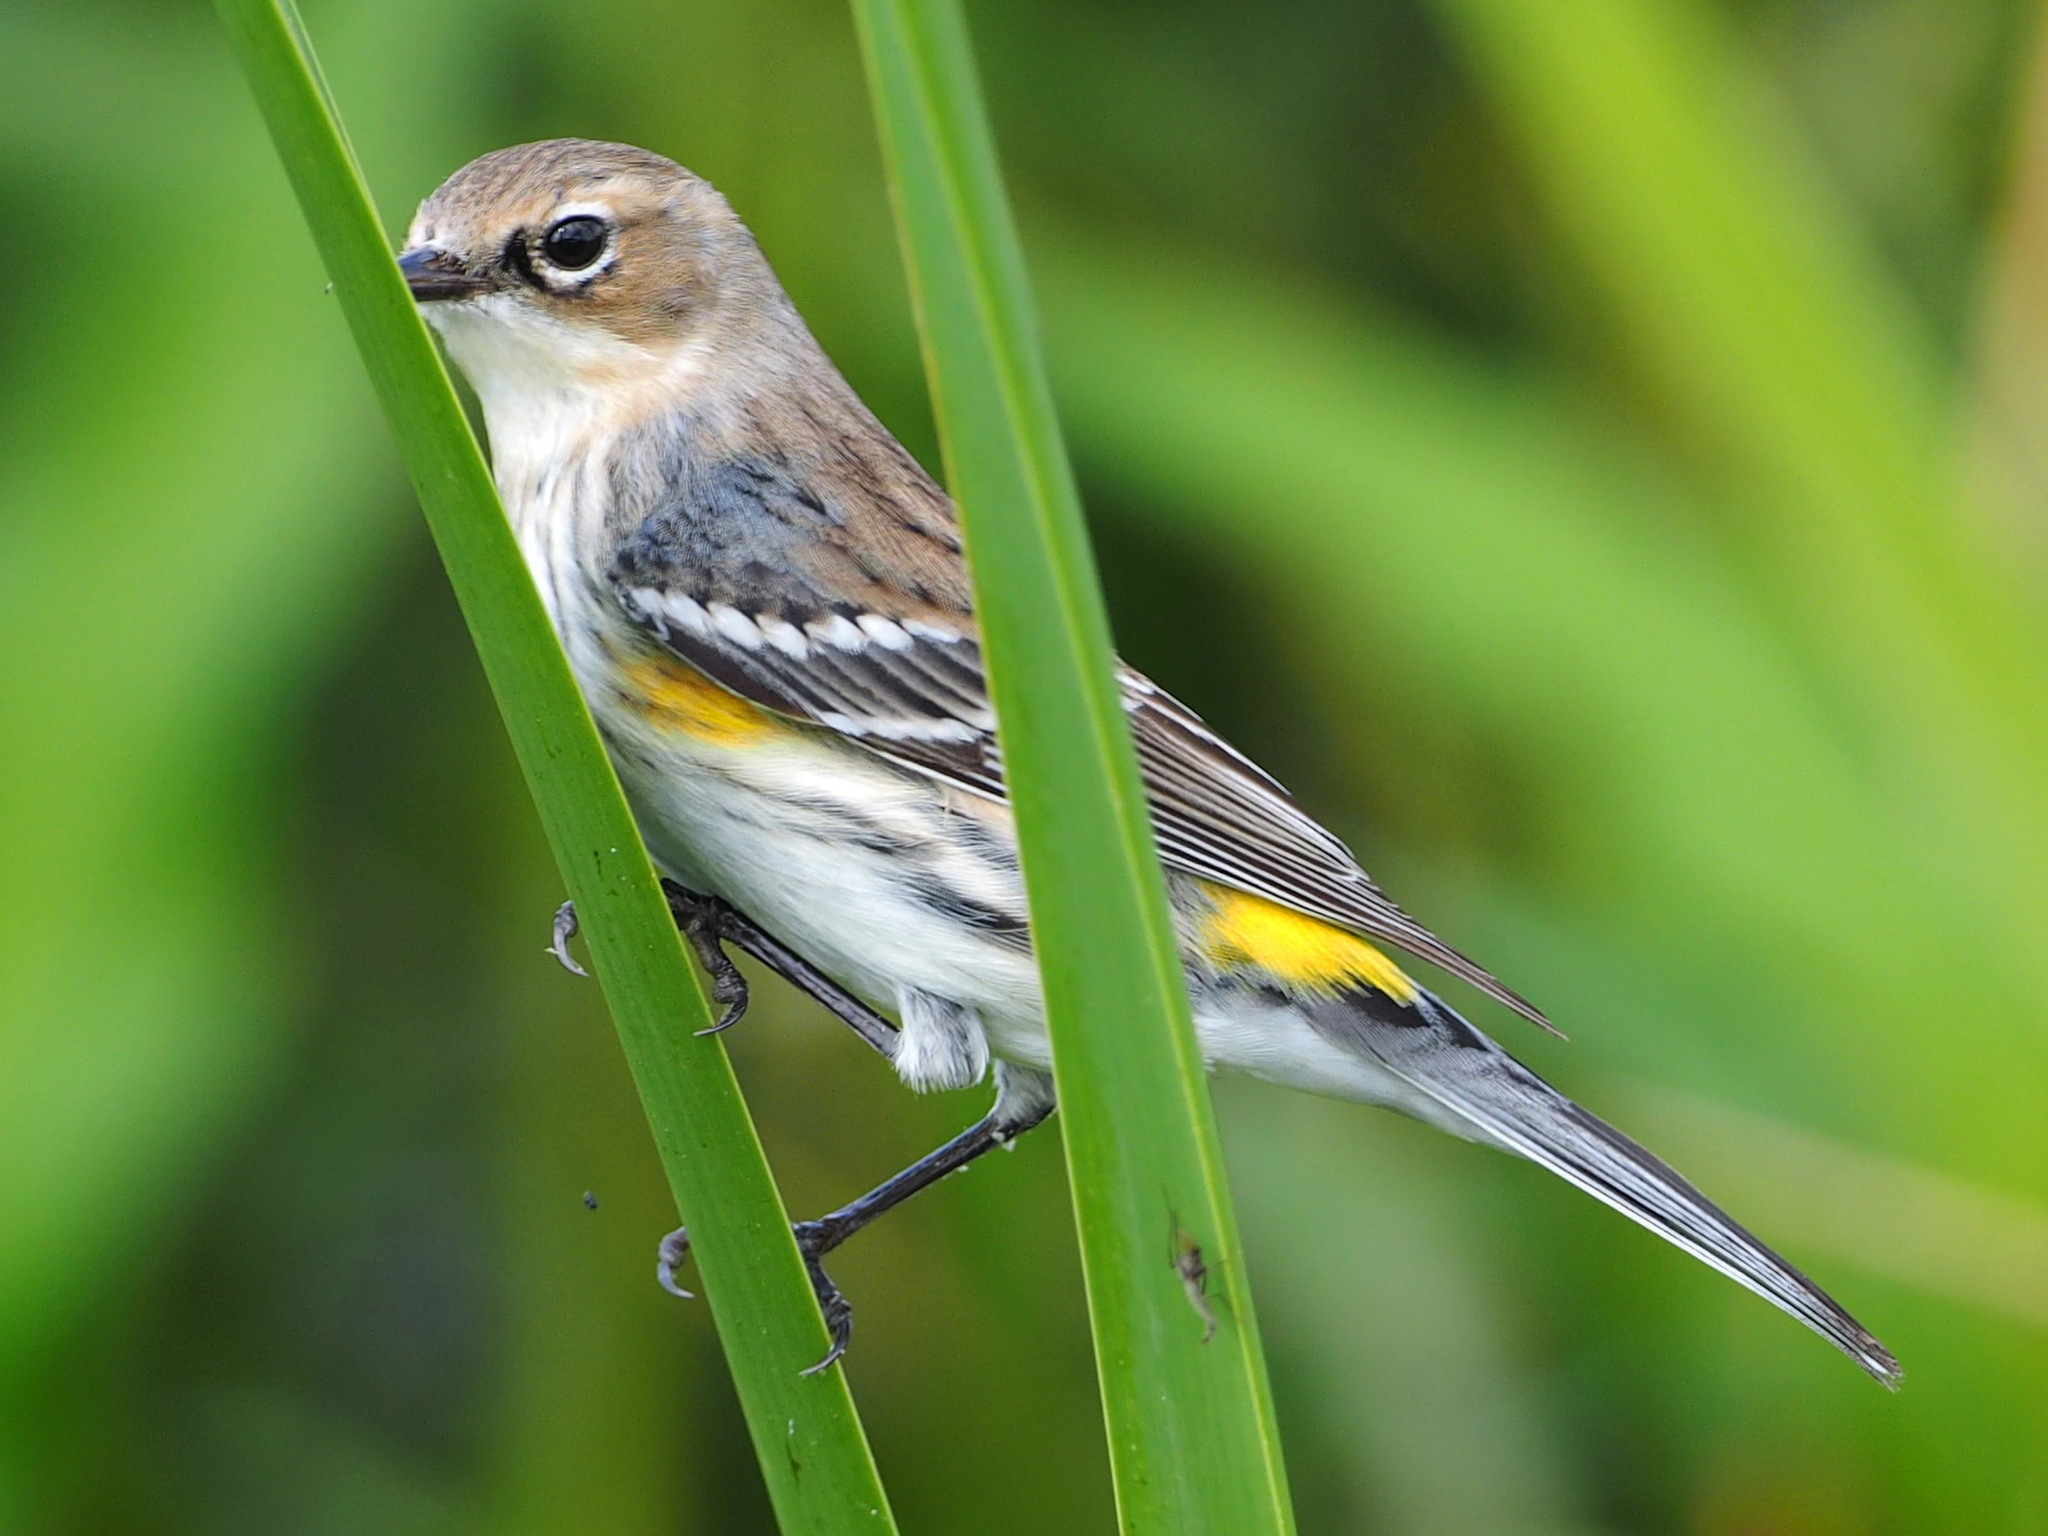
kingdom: Animalia
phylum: Chordata
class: Aves
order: Passeriformes
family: Parulidae
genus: Setophaga
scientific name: Setophaga coronata
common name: Myrtle warbler
